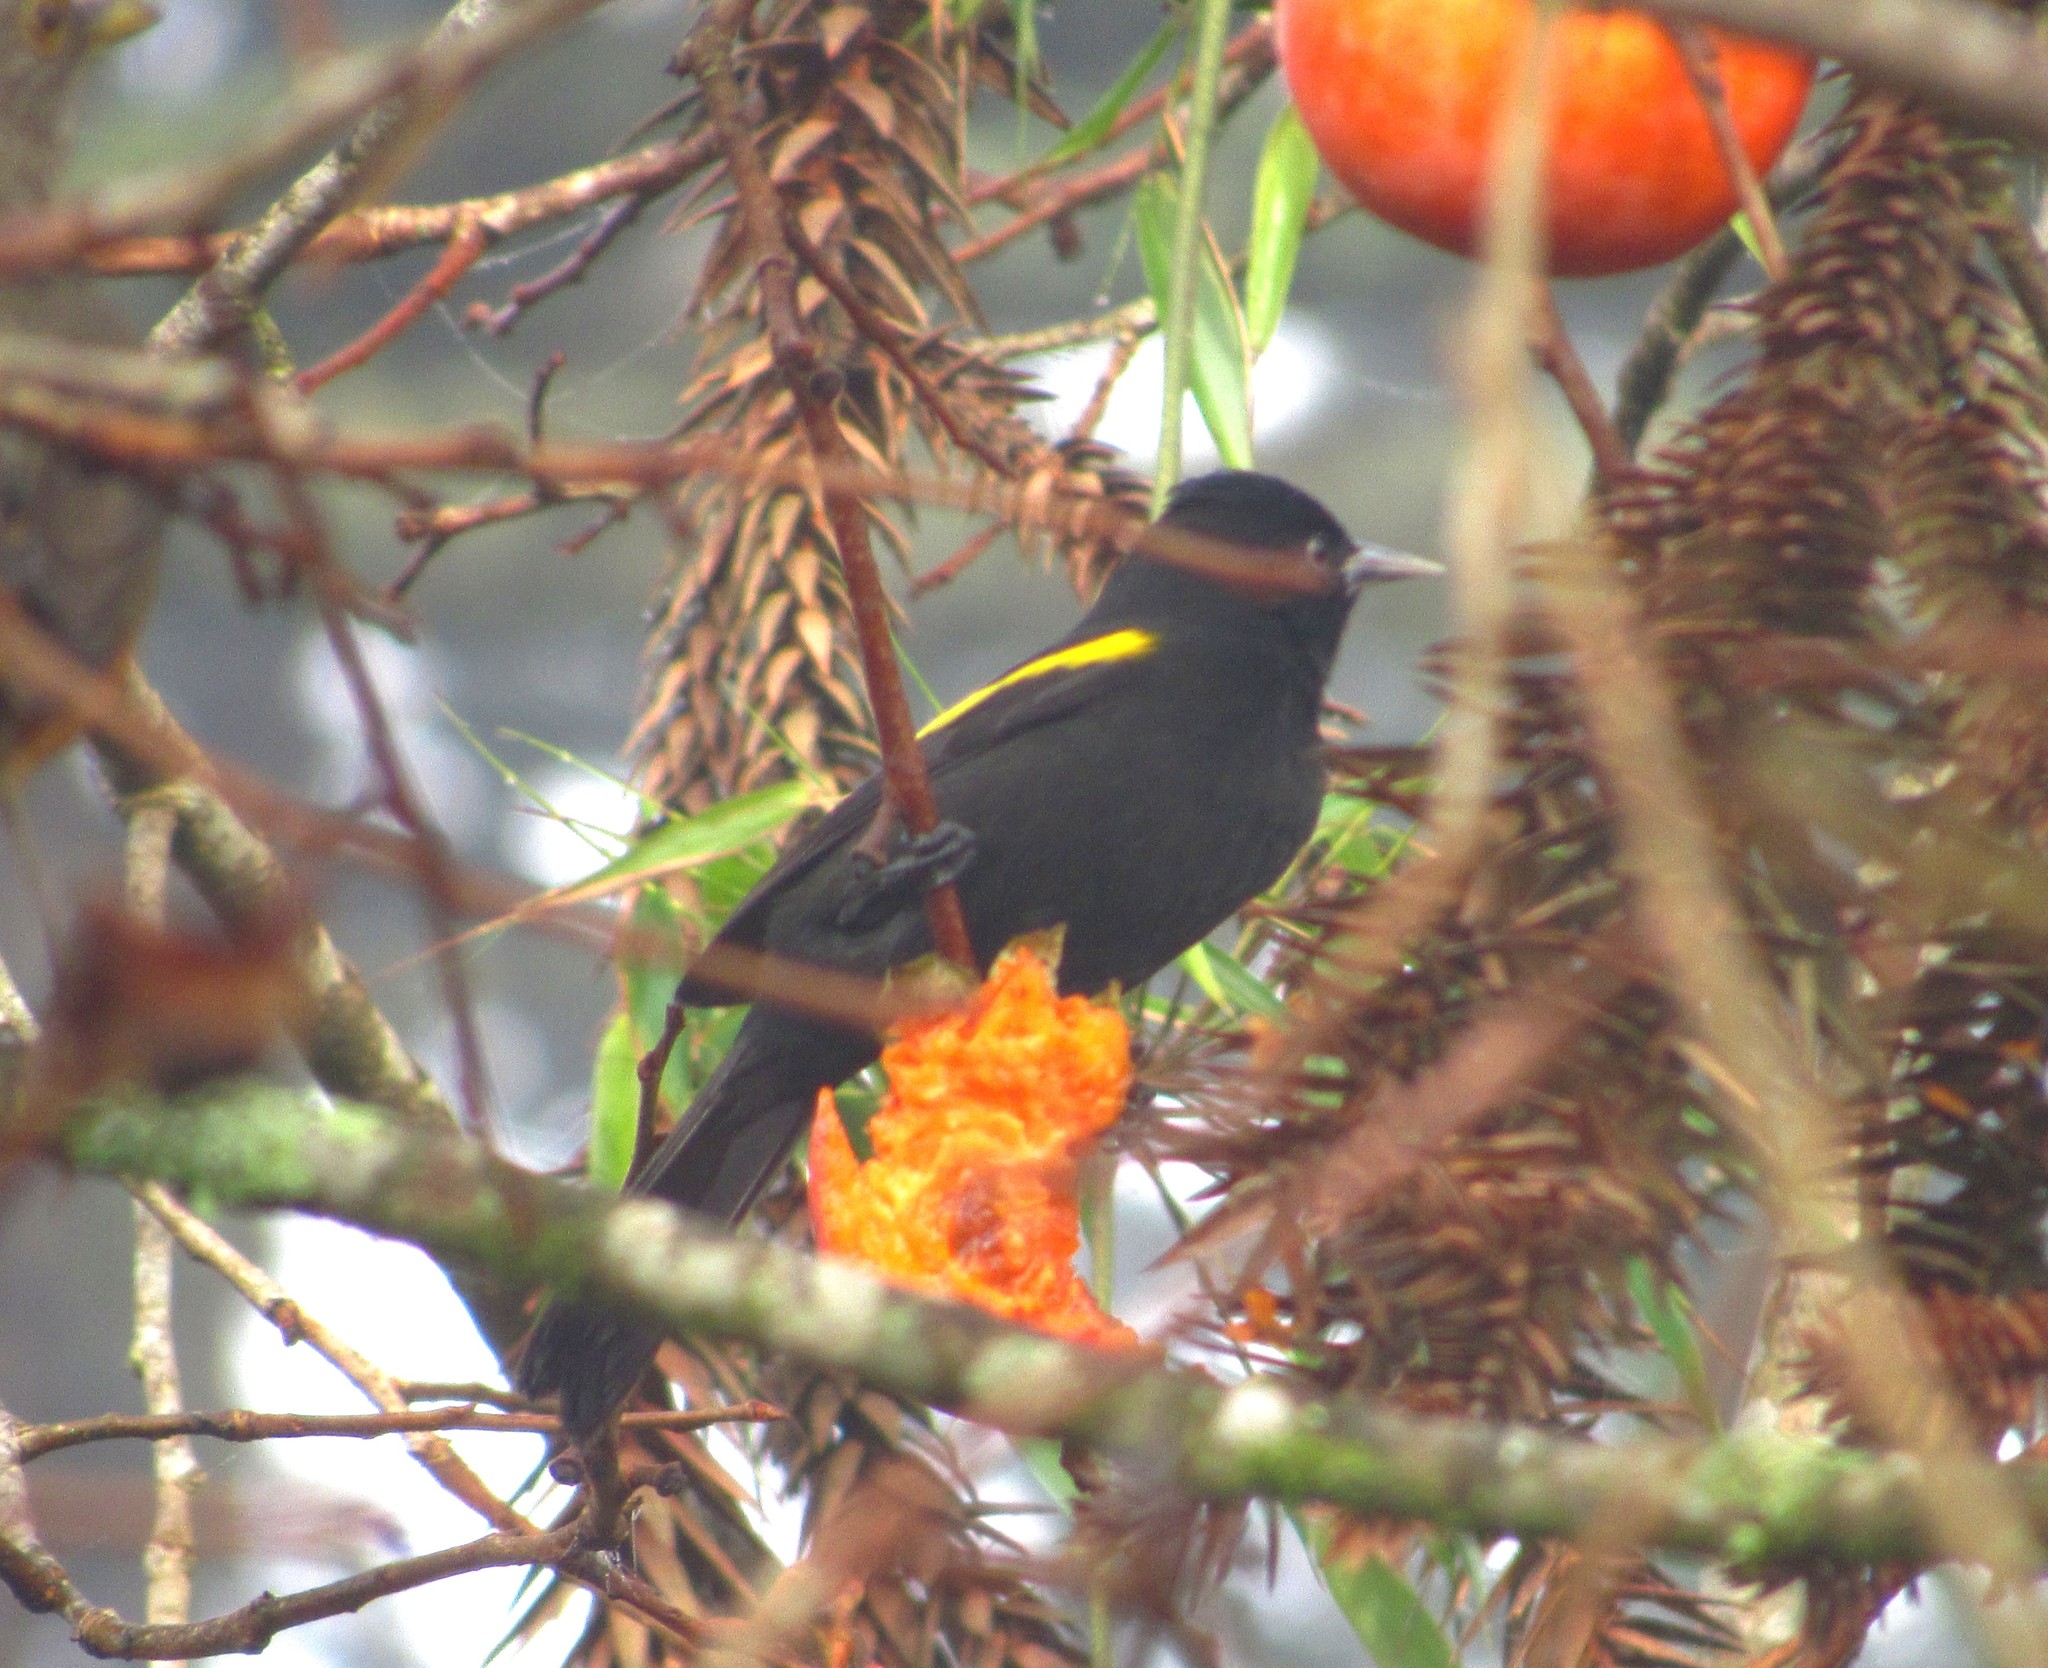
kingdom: Animalia
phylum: Chordata
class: Aves
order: Passeriformes
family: Icteridae
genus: Cacicus
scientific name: Cacicus chrysopterus
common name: Golden-winged cacique
